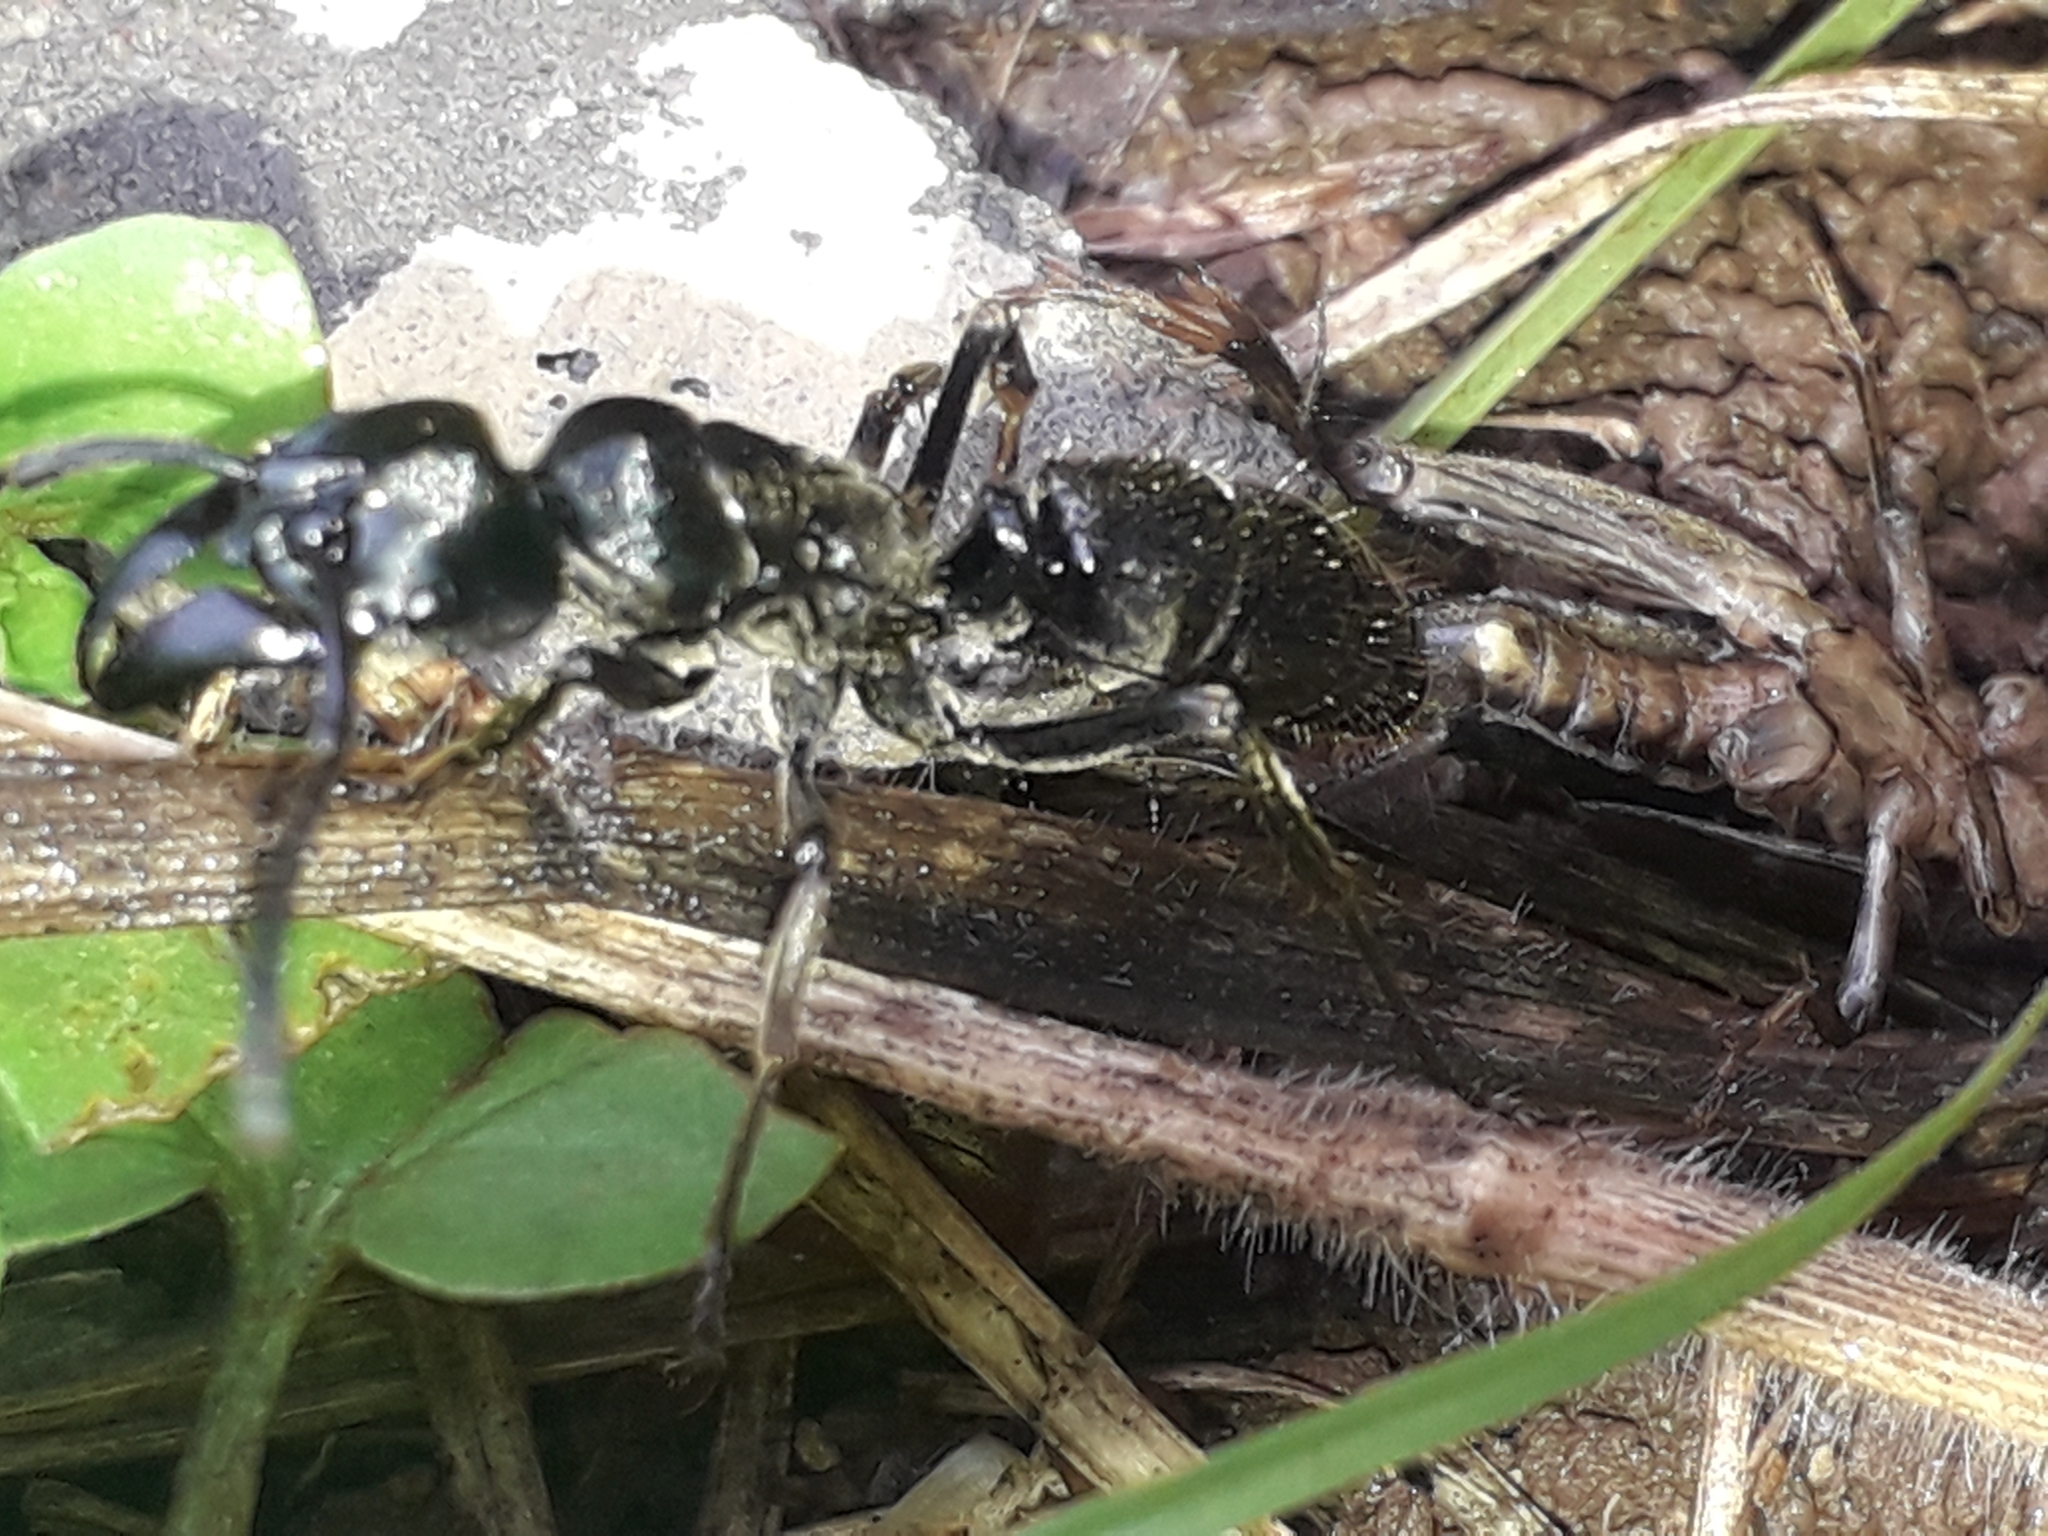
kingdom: Animalia
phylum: Arthropoda
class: Insecta
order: Hymenoptera
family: Formicidae
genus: Paltothyreus
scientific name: Paltothyreus tarsatus
